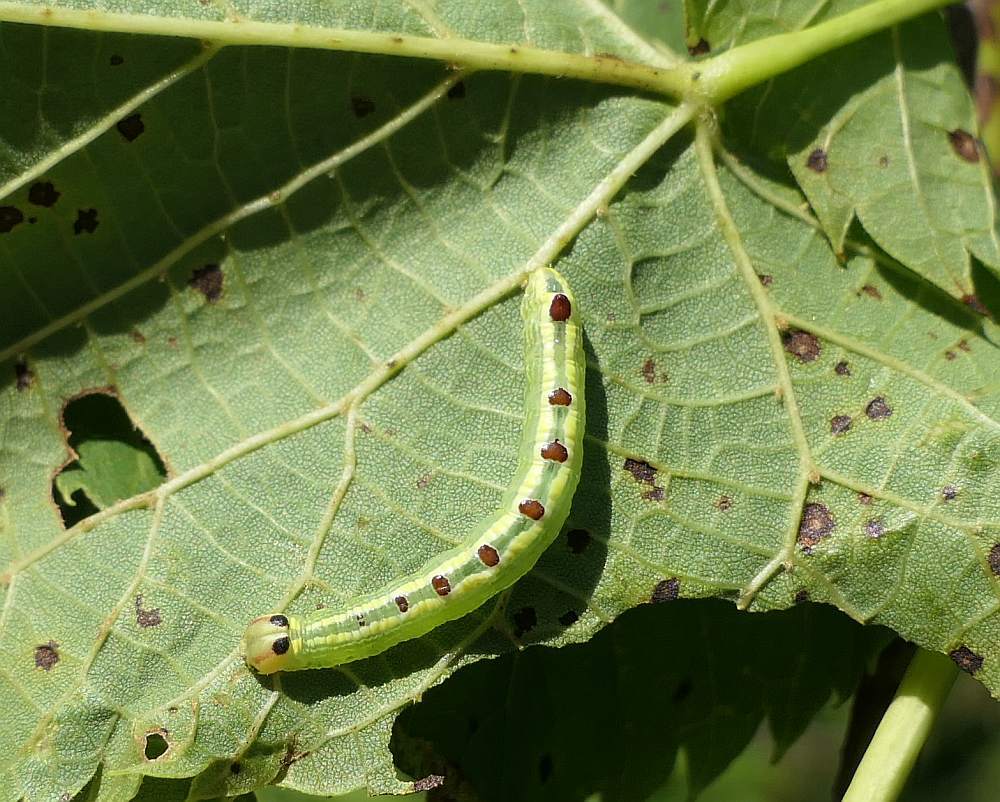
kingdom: Animalia
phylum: Arthropoda
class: Insecta
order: Lepidoptera
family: Notodontidae
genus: Ellida
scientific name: Ellida caniplaga
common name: Linden prominent
